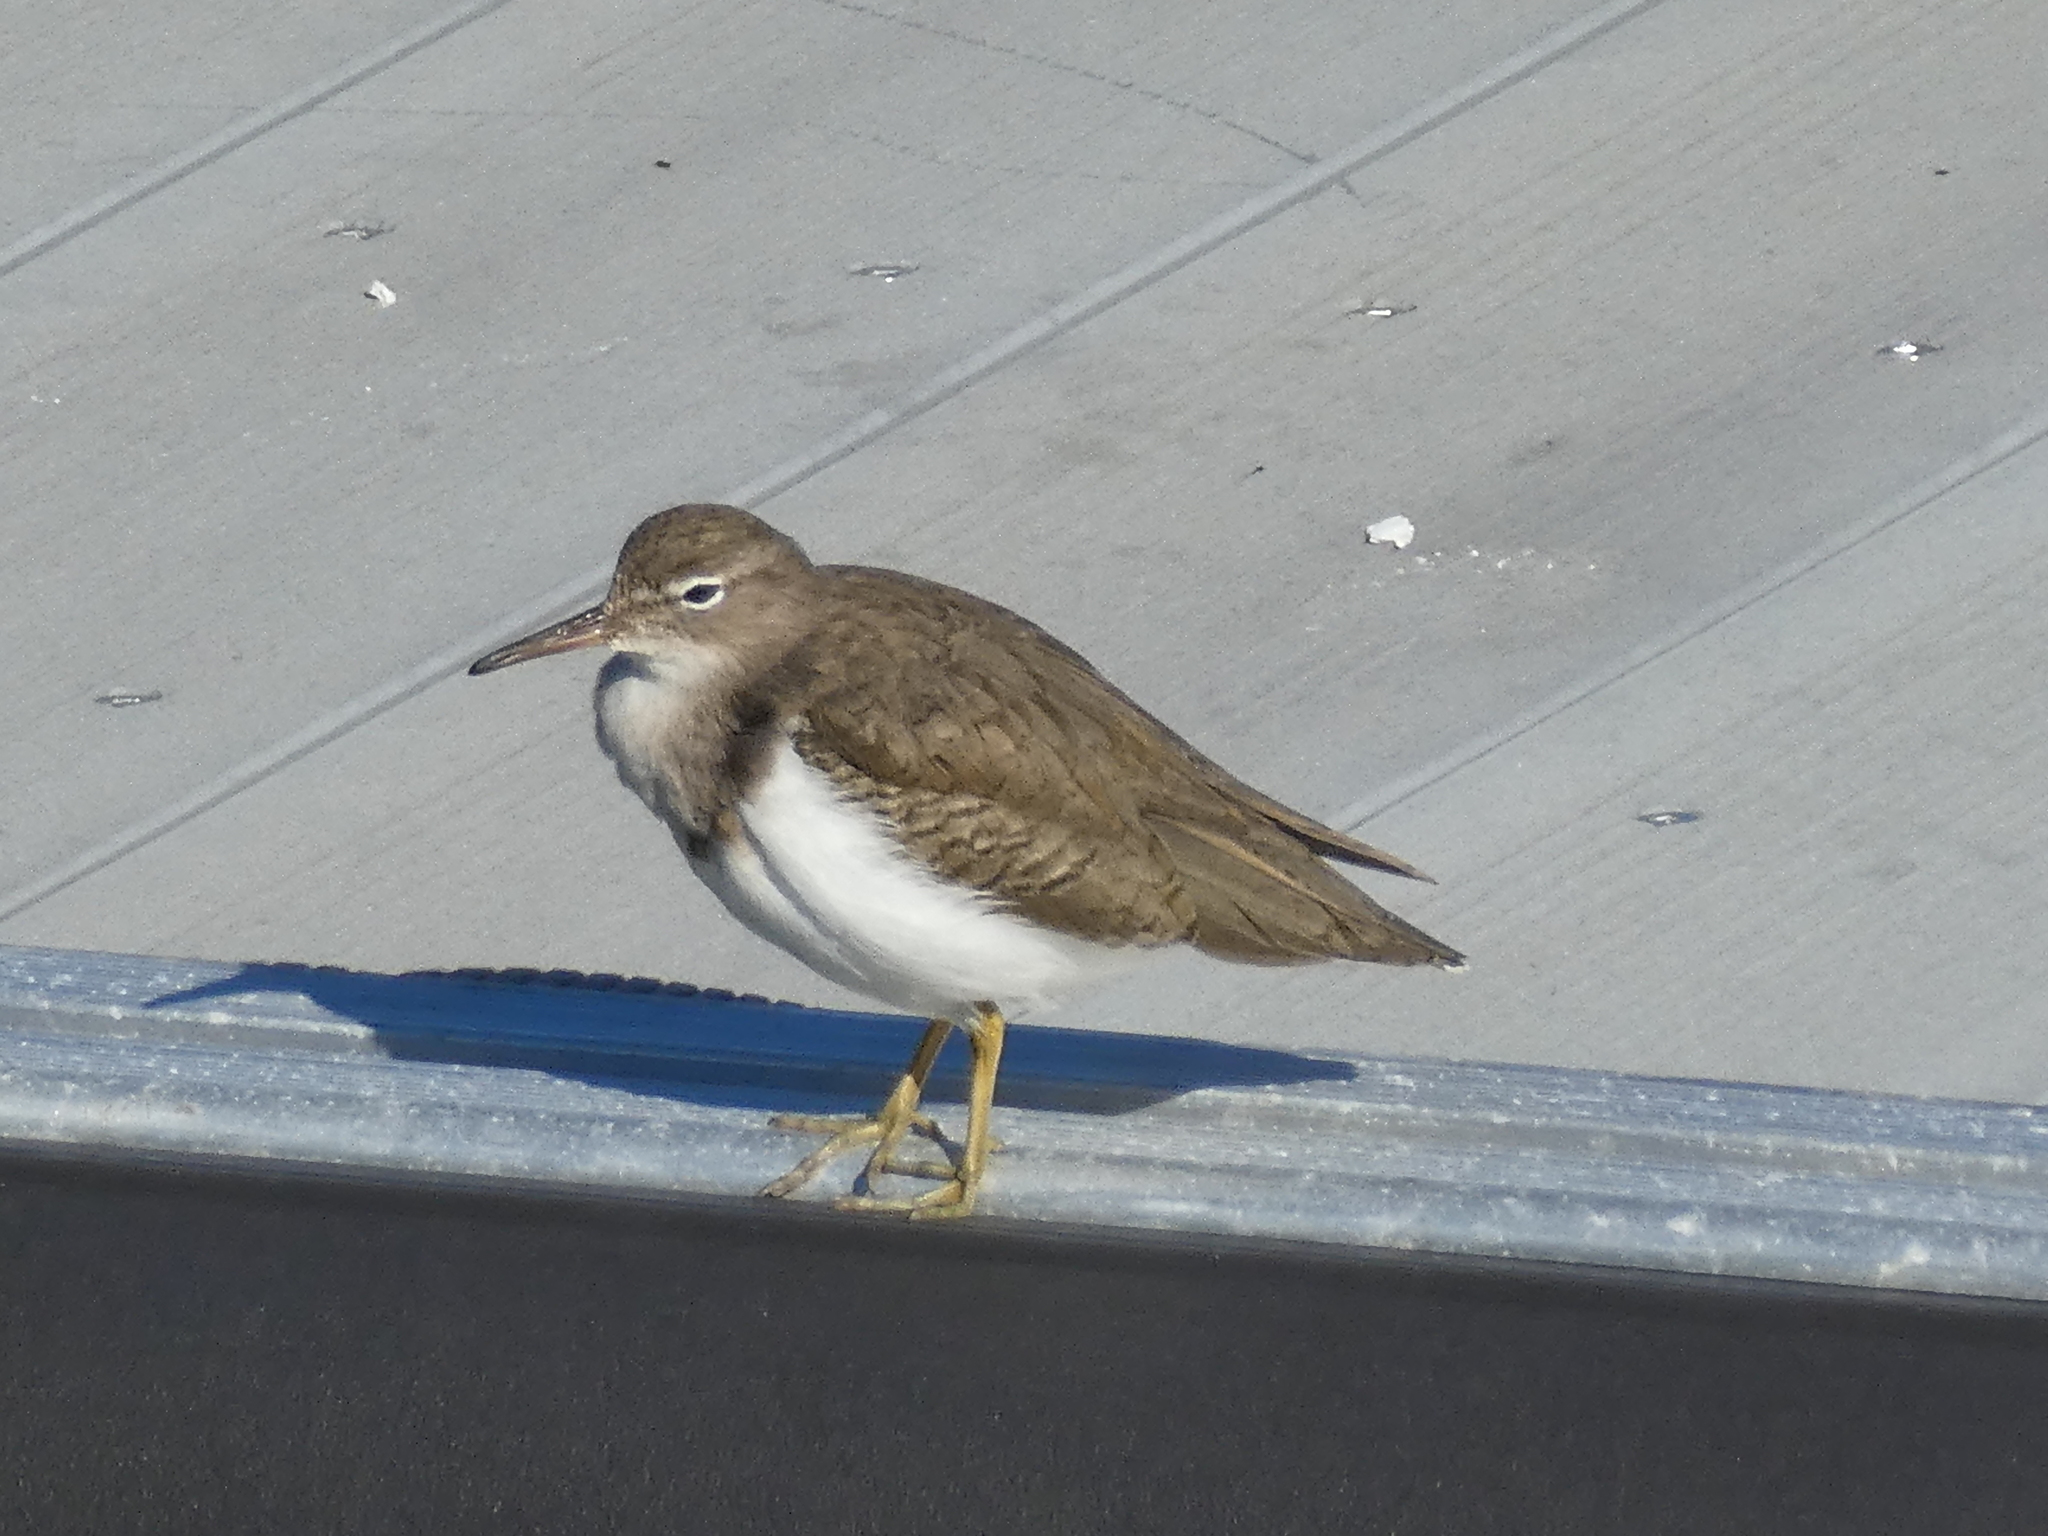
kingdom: Animalia
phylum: Chordata
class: Aves
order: Charadriiformes
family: Scolopacidae
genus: Actitis
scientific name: Actitis macularius
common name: Spotted sandpiper
